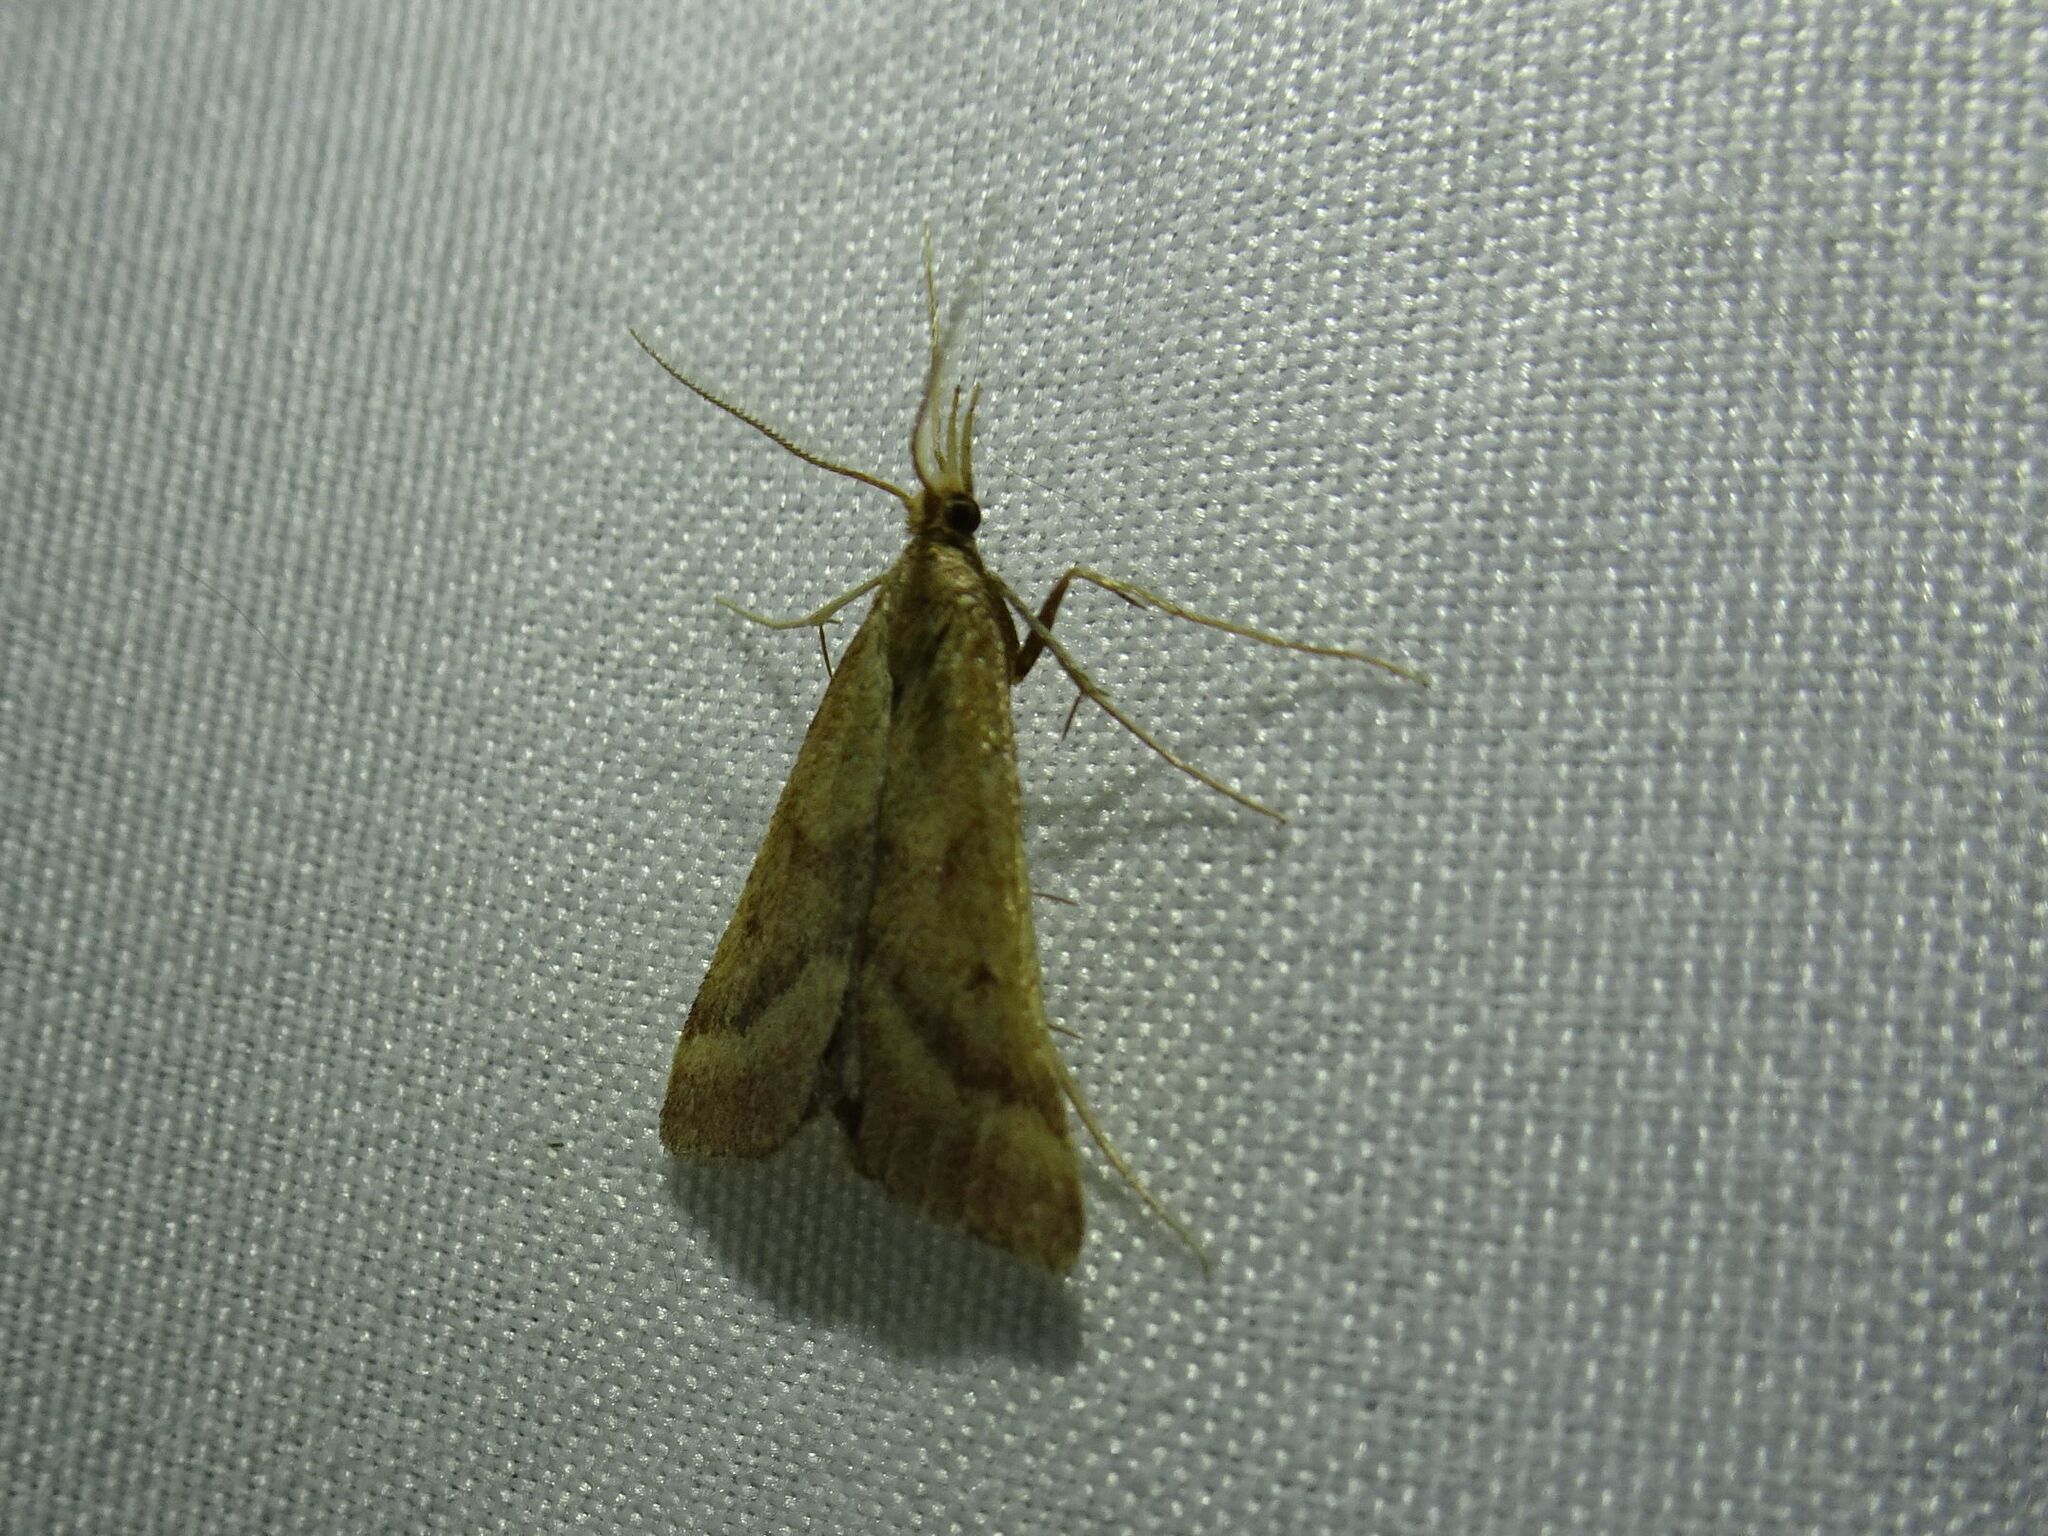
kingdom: Animalia
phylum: Arthropoda
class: Insecta
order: Lepidoptera
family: Pyralidae
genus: Synaphe
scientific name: Synaphe punctalis
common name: Long-legged tabby
